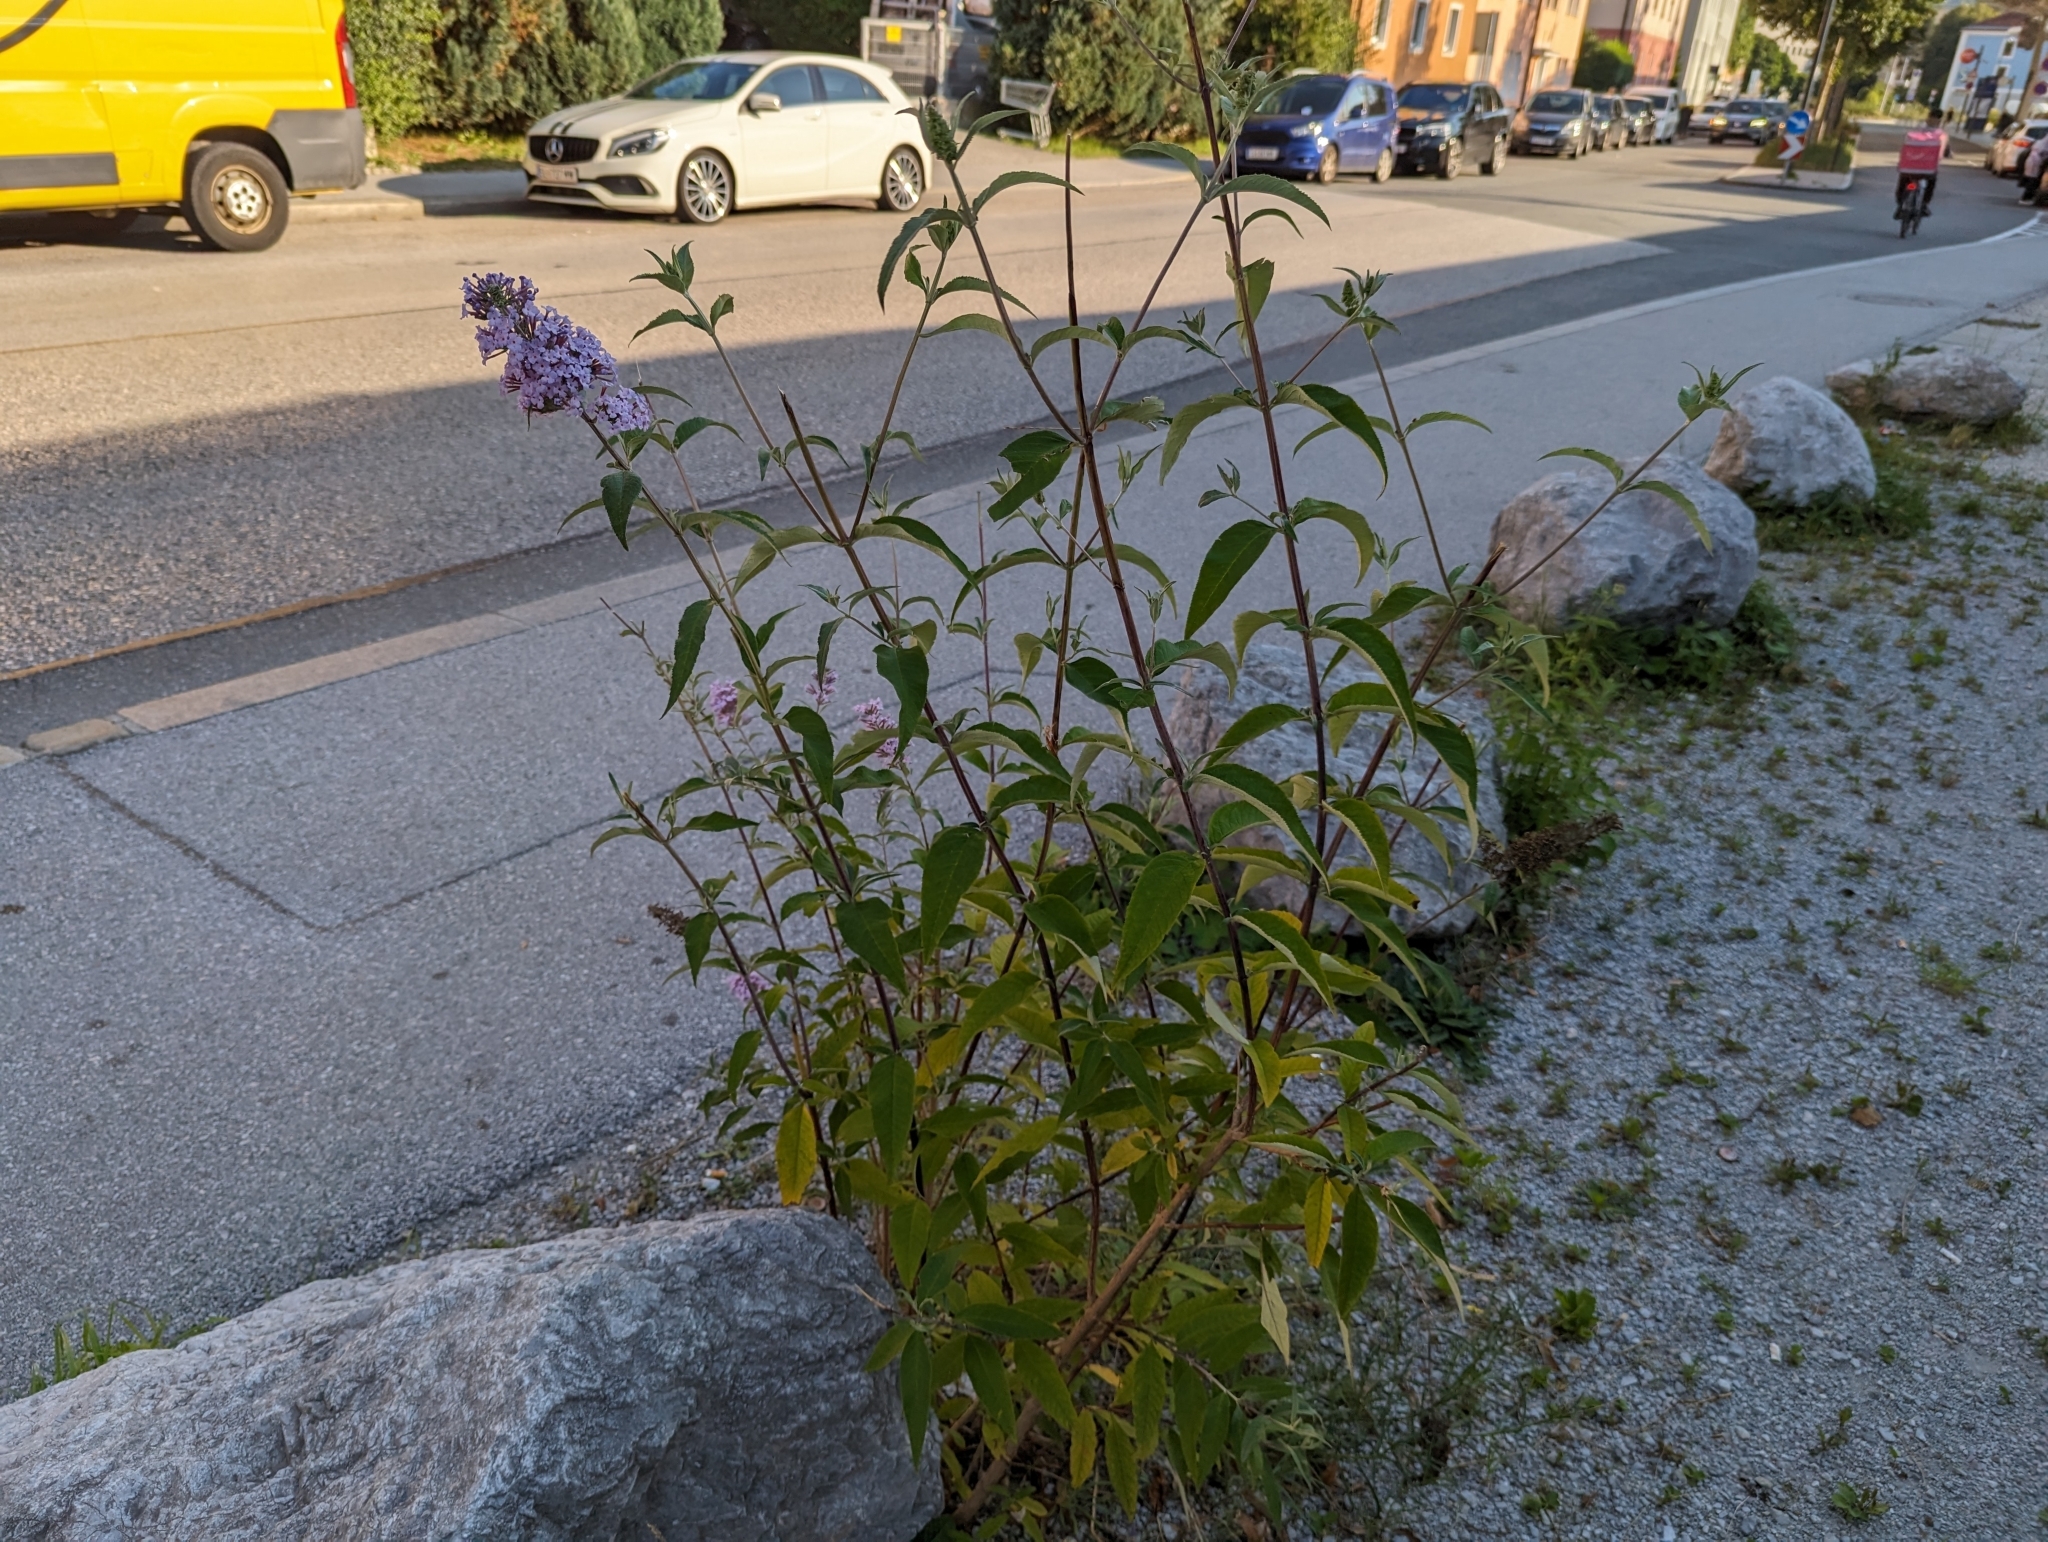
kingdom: Plantae
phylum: Tracheophyta
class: Magnoliopsida
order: Lamiales
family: Scrophulariaceae
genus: Buddleja
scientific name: Buddleja davidii
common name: Butterfly-bush
